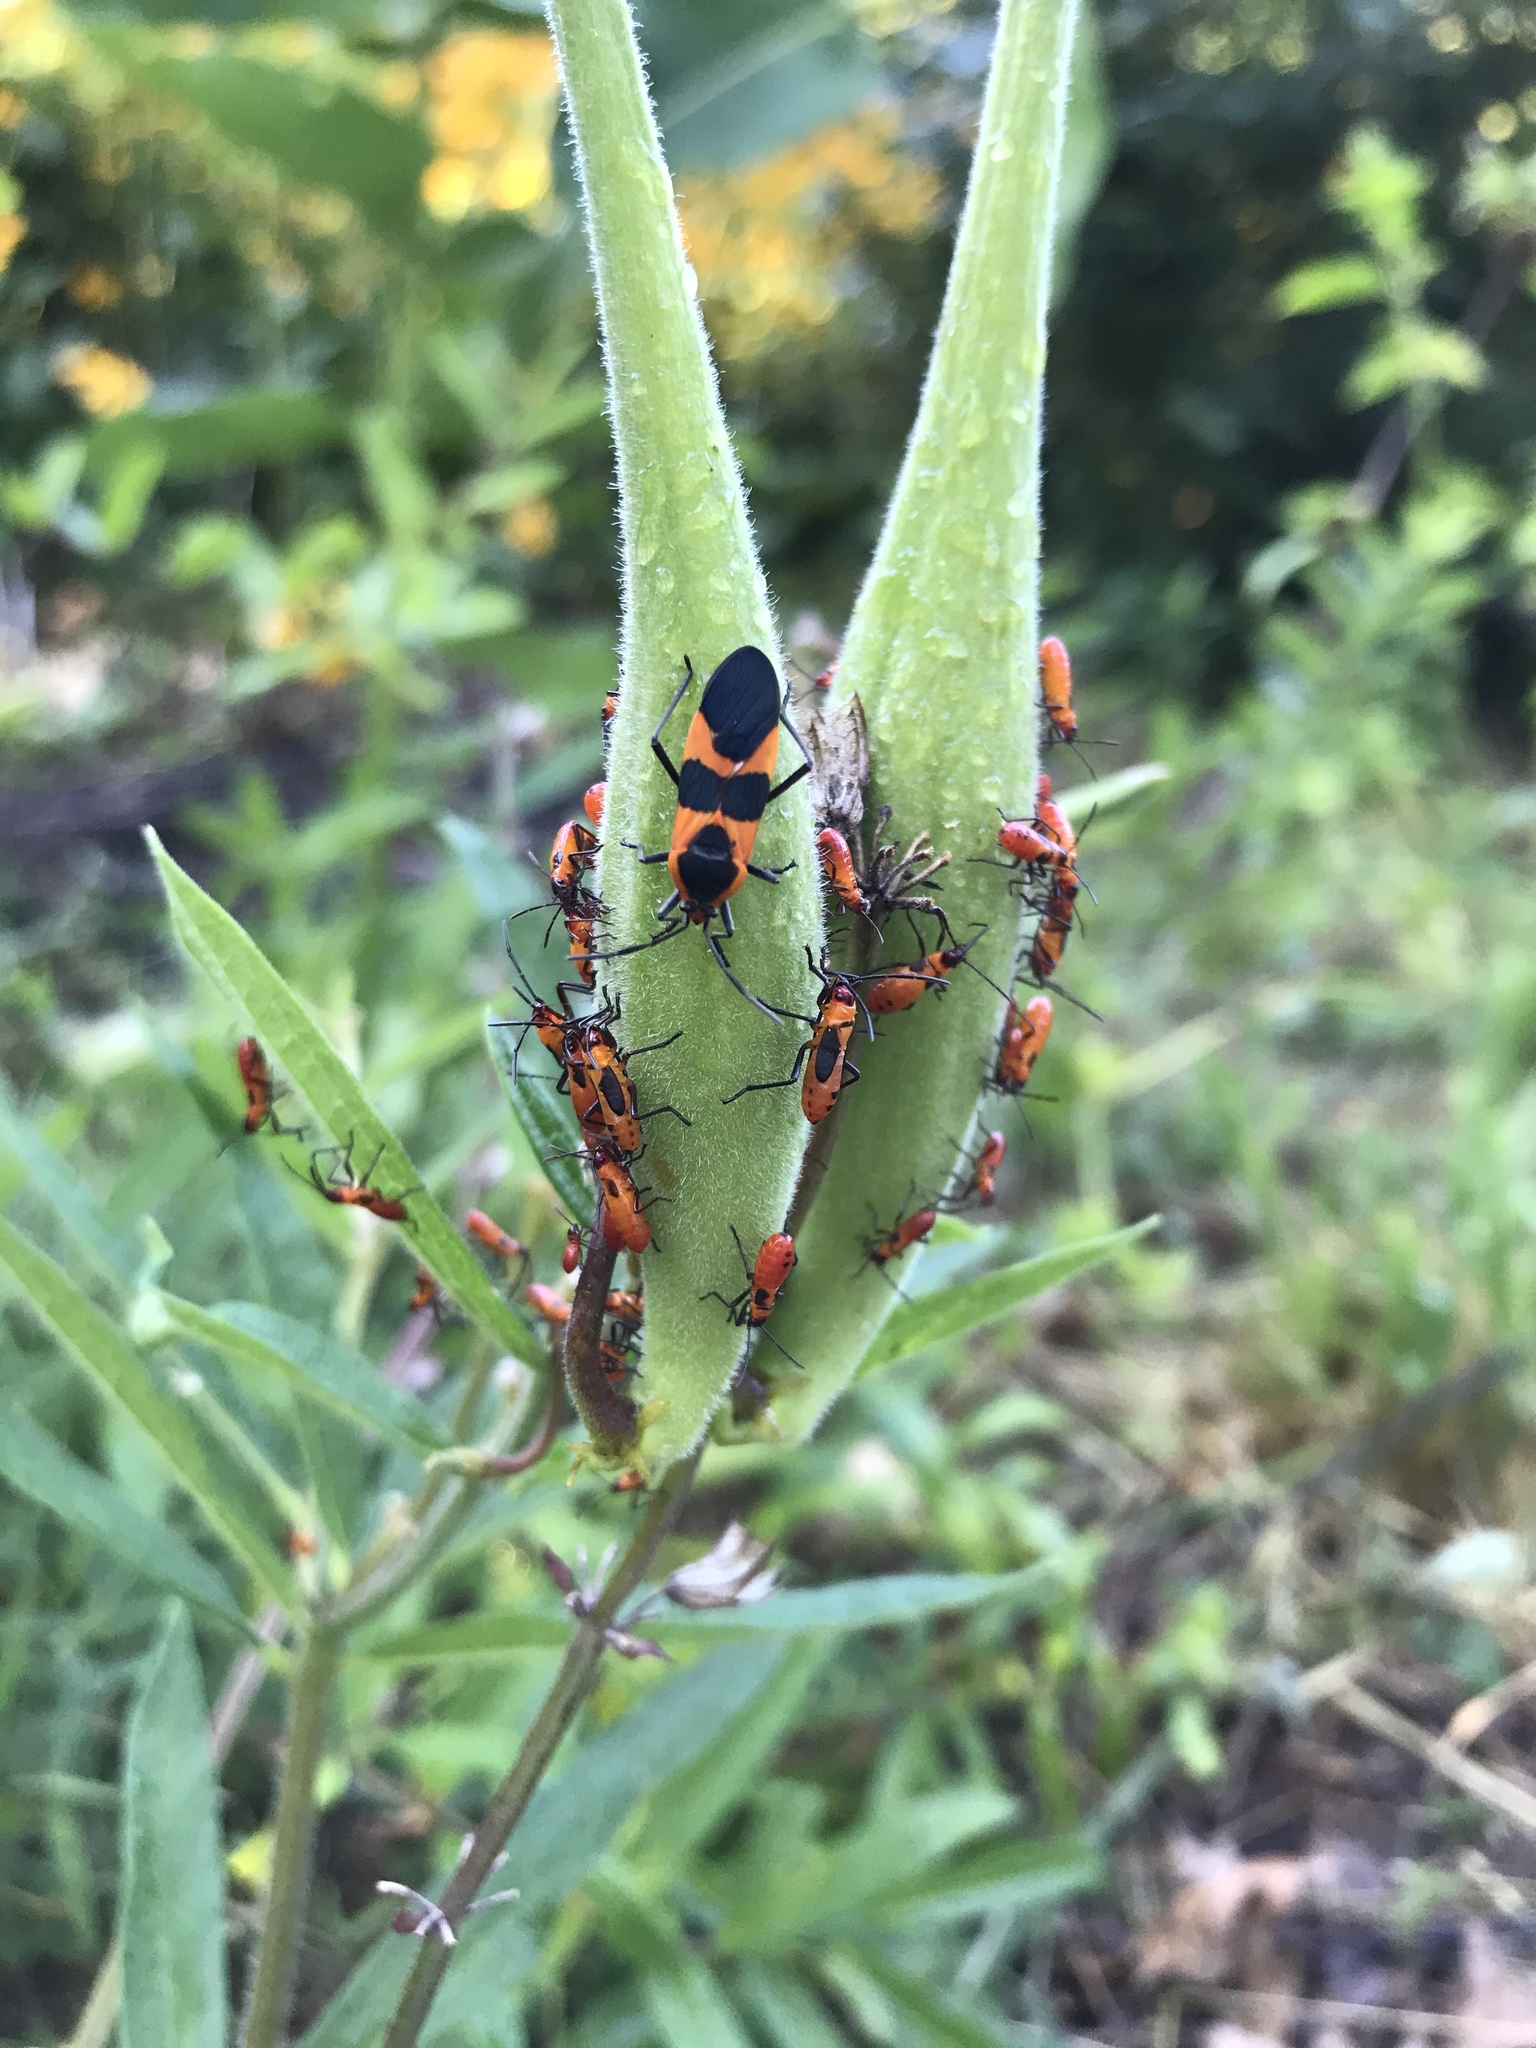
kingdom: Animalia
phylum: Arthropoda
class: Insecta
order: Hemiptera
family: Lygaeidae
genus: Oncopeltus
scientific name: Oncopeltus fasciatus
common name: Large milkweed bug
